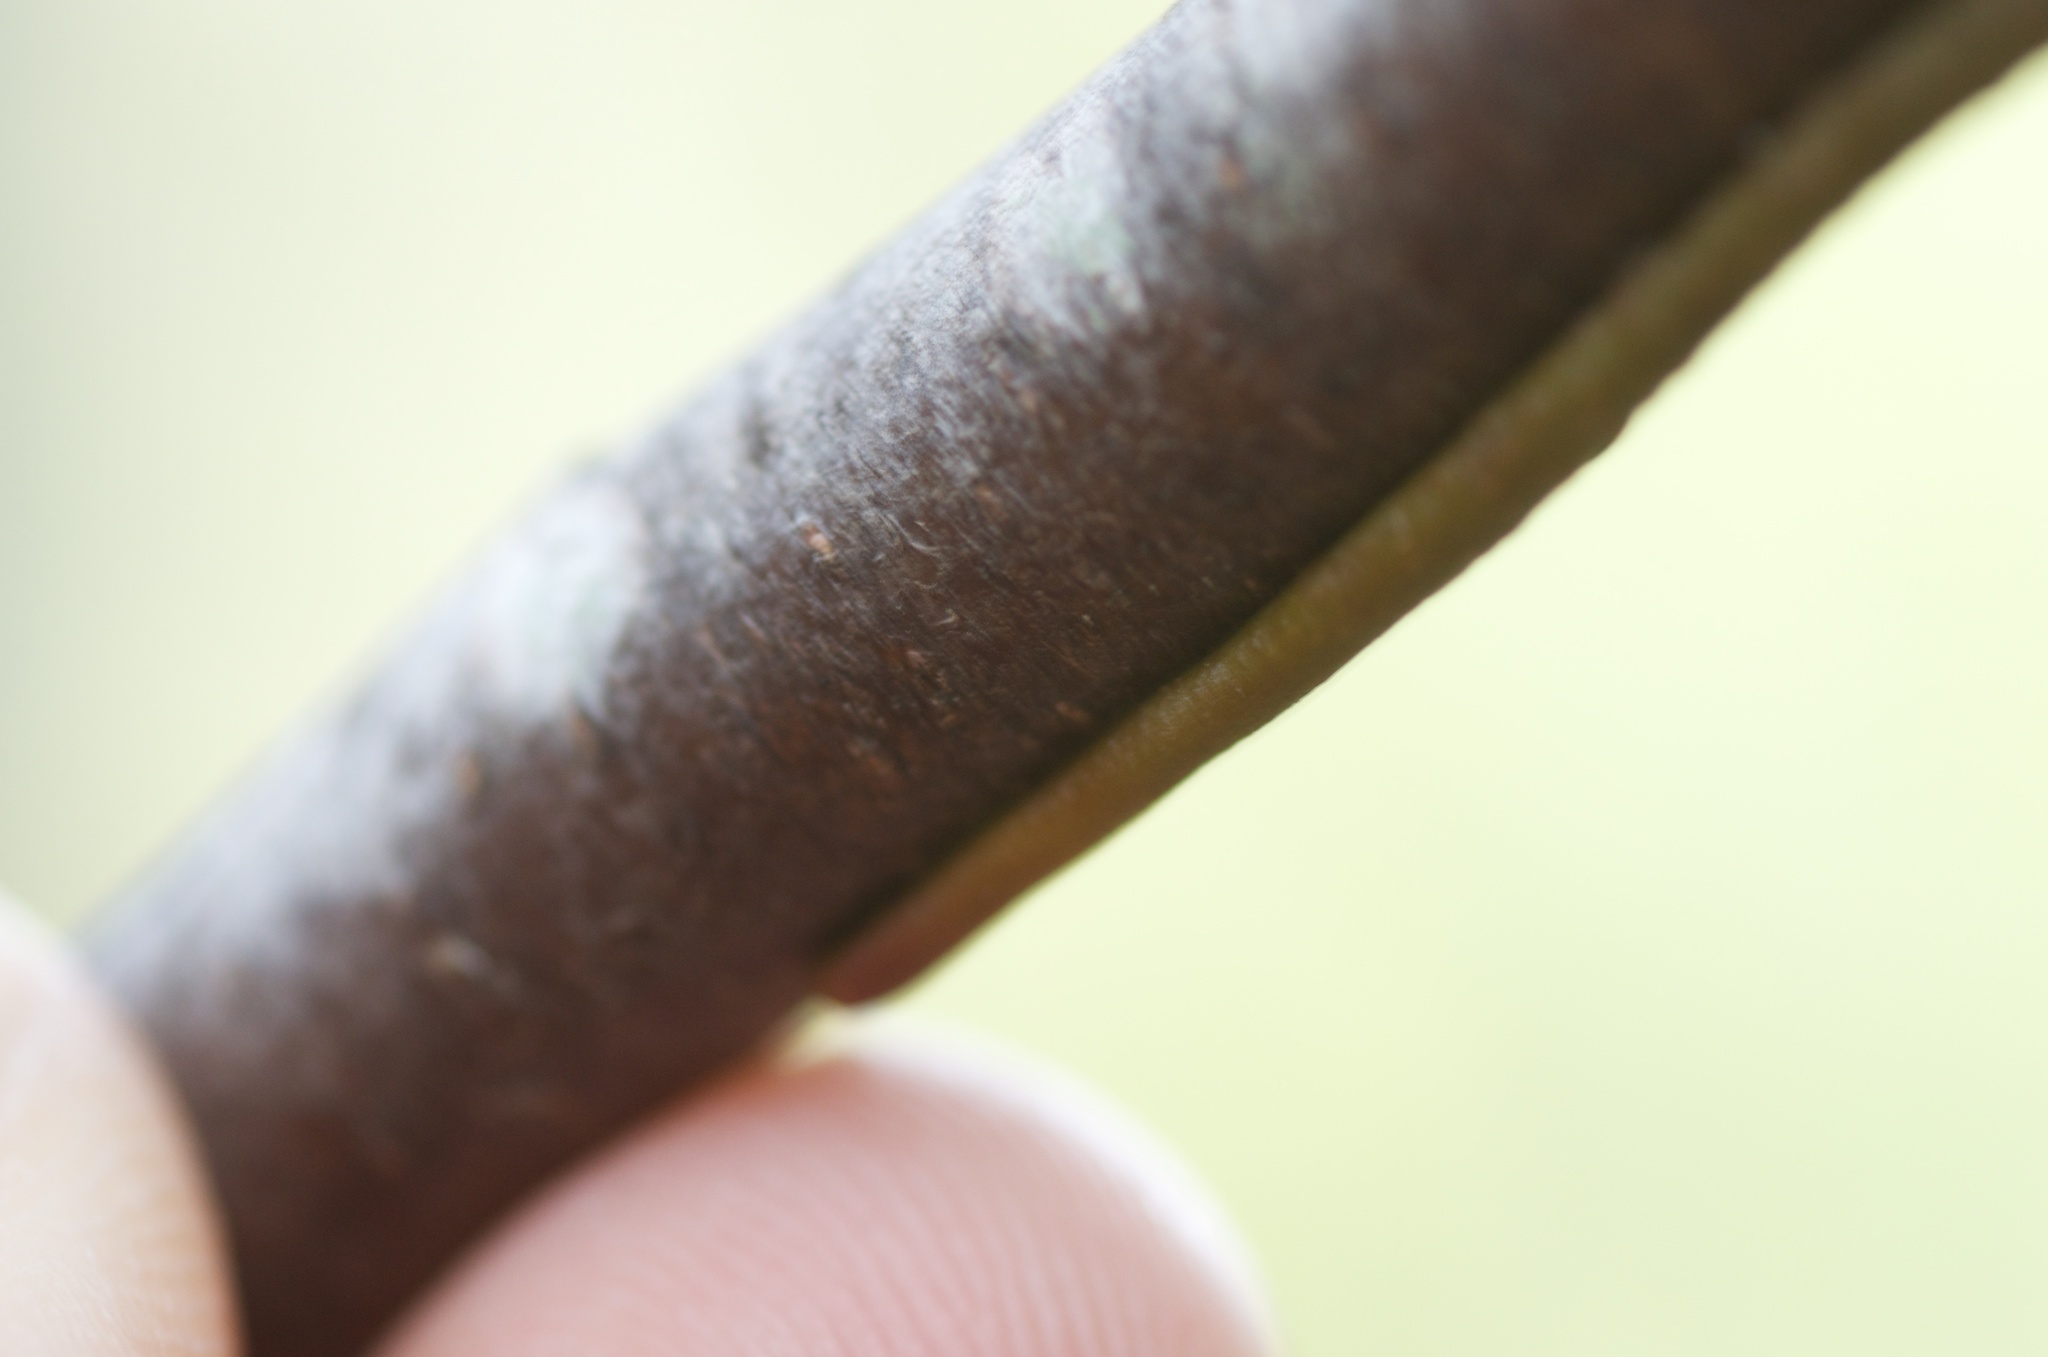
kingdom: Plantae
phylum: Tracheophyta
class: Magnoliopsida
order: Santalales
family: Loranthaceae
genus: Alepis
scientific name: Alepis flavida
